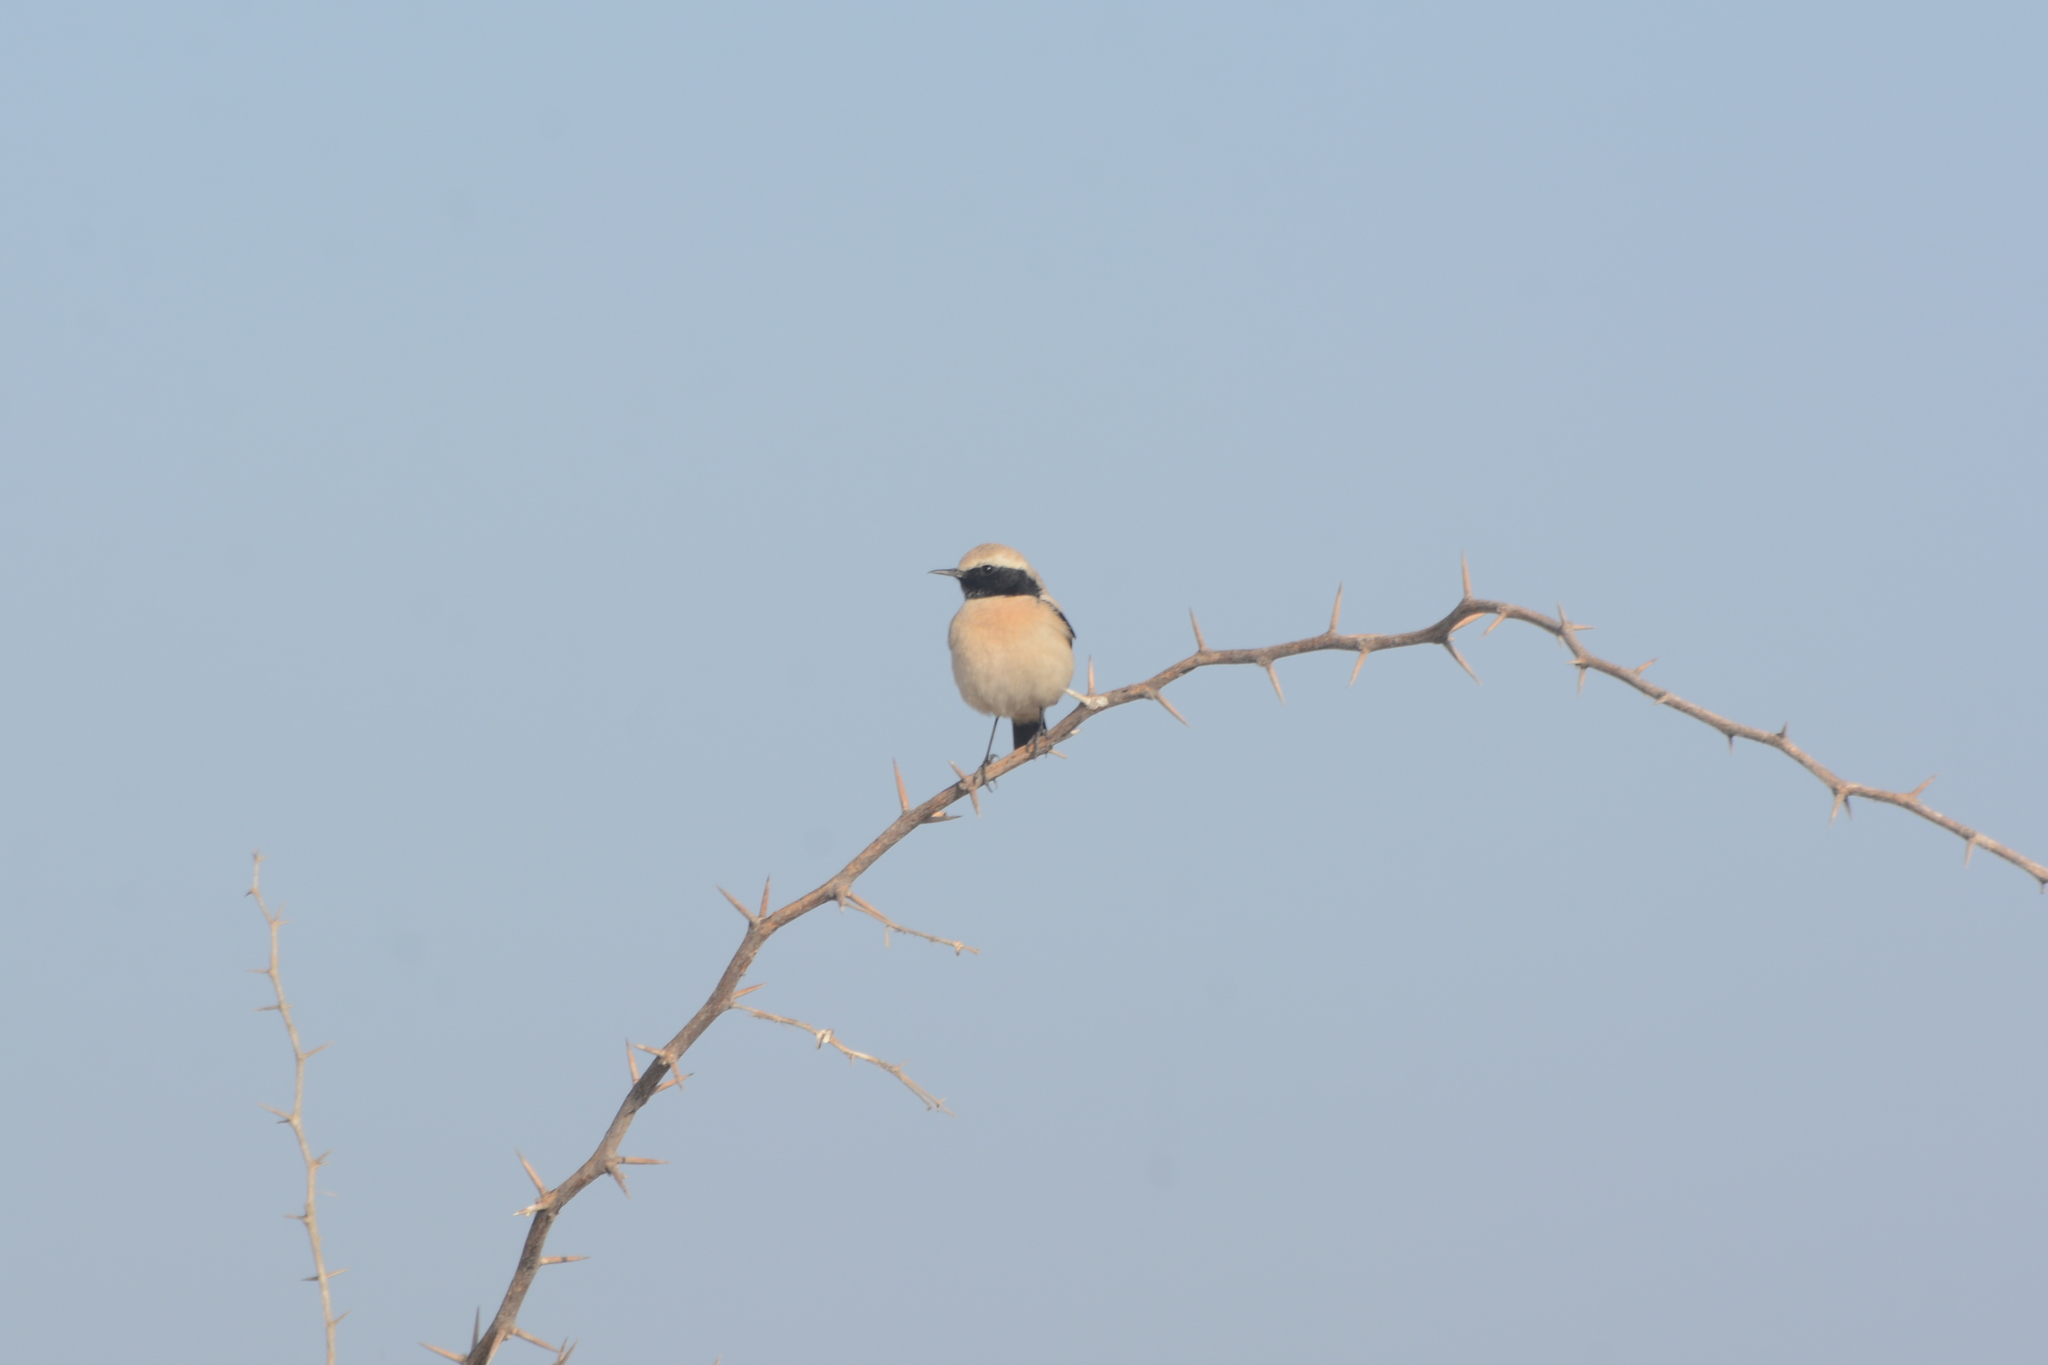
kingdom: Animalia
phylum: Chordata
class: Aves
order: Passeriformes
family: Muscicapidae
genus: Oenanthe
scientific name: Oenanthe deserti
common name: Desert wheatear
